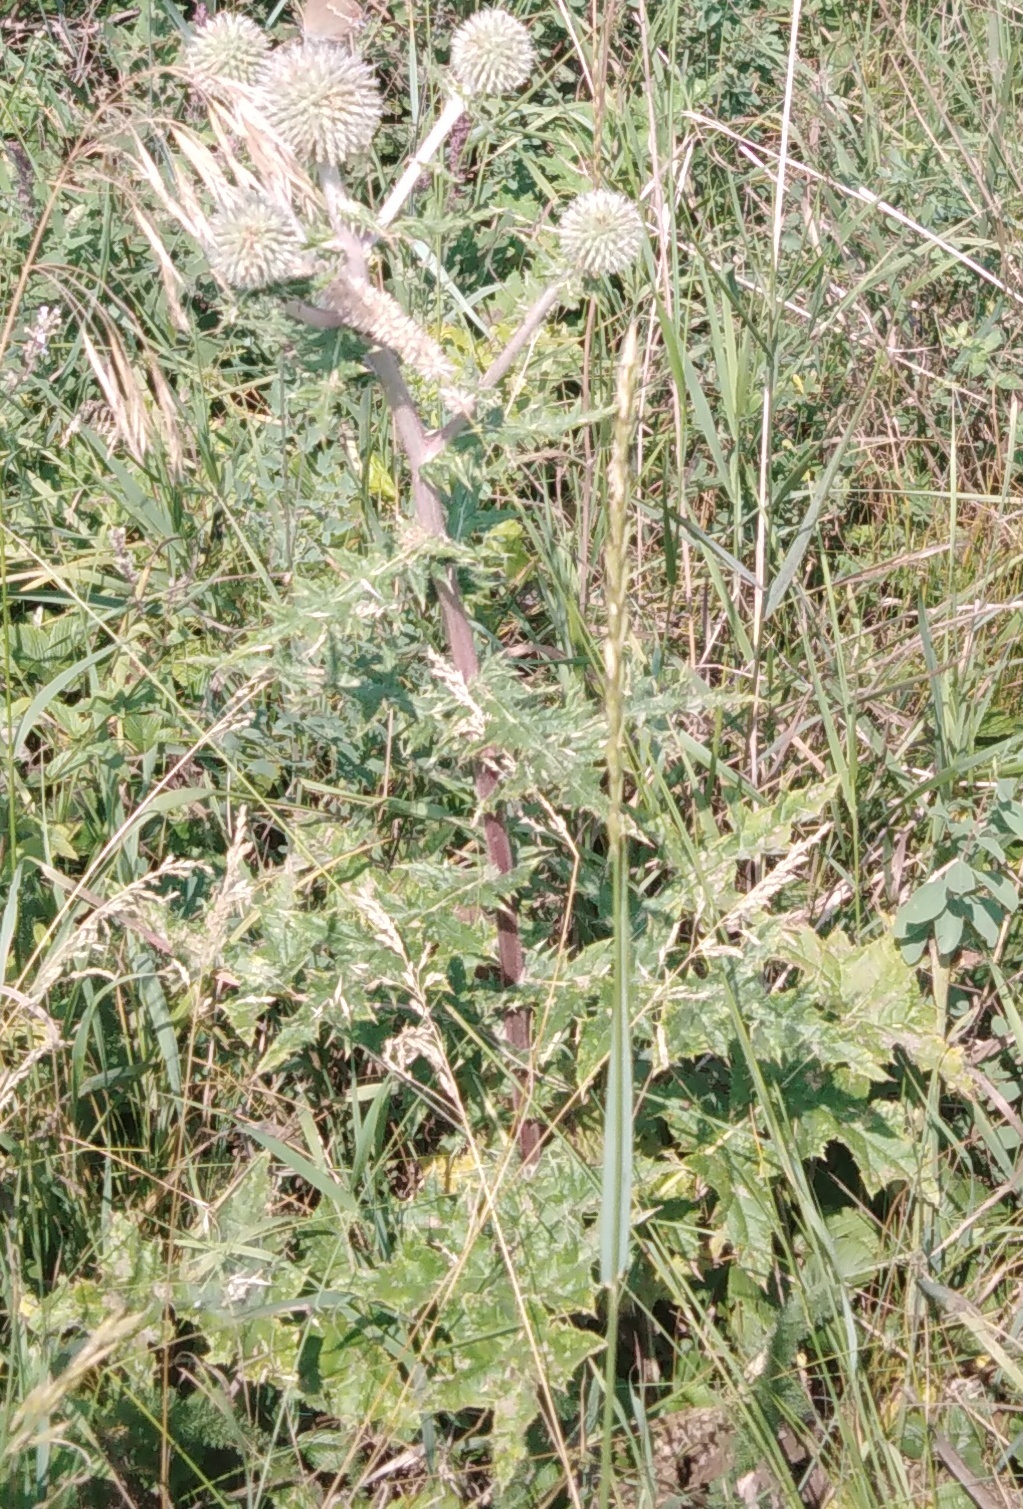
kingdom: Plantae
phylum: Tracheophyta
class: Magnoliopsida
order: Asterales
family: Asteraceae
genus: Echinops
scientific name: Echinops sphaerocephalus
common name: Glandular globe-thistle
